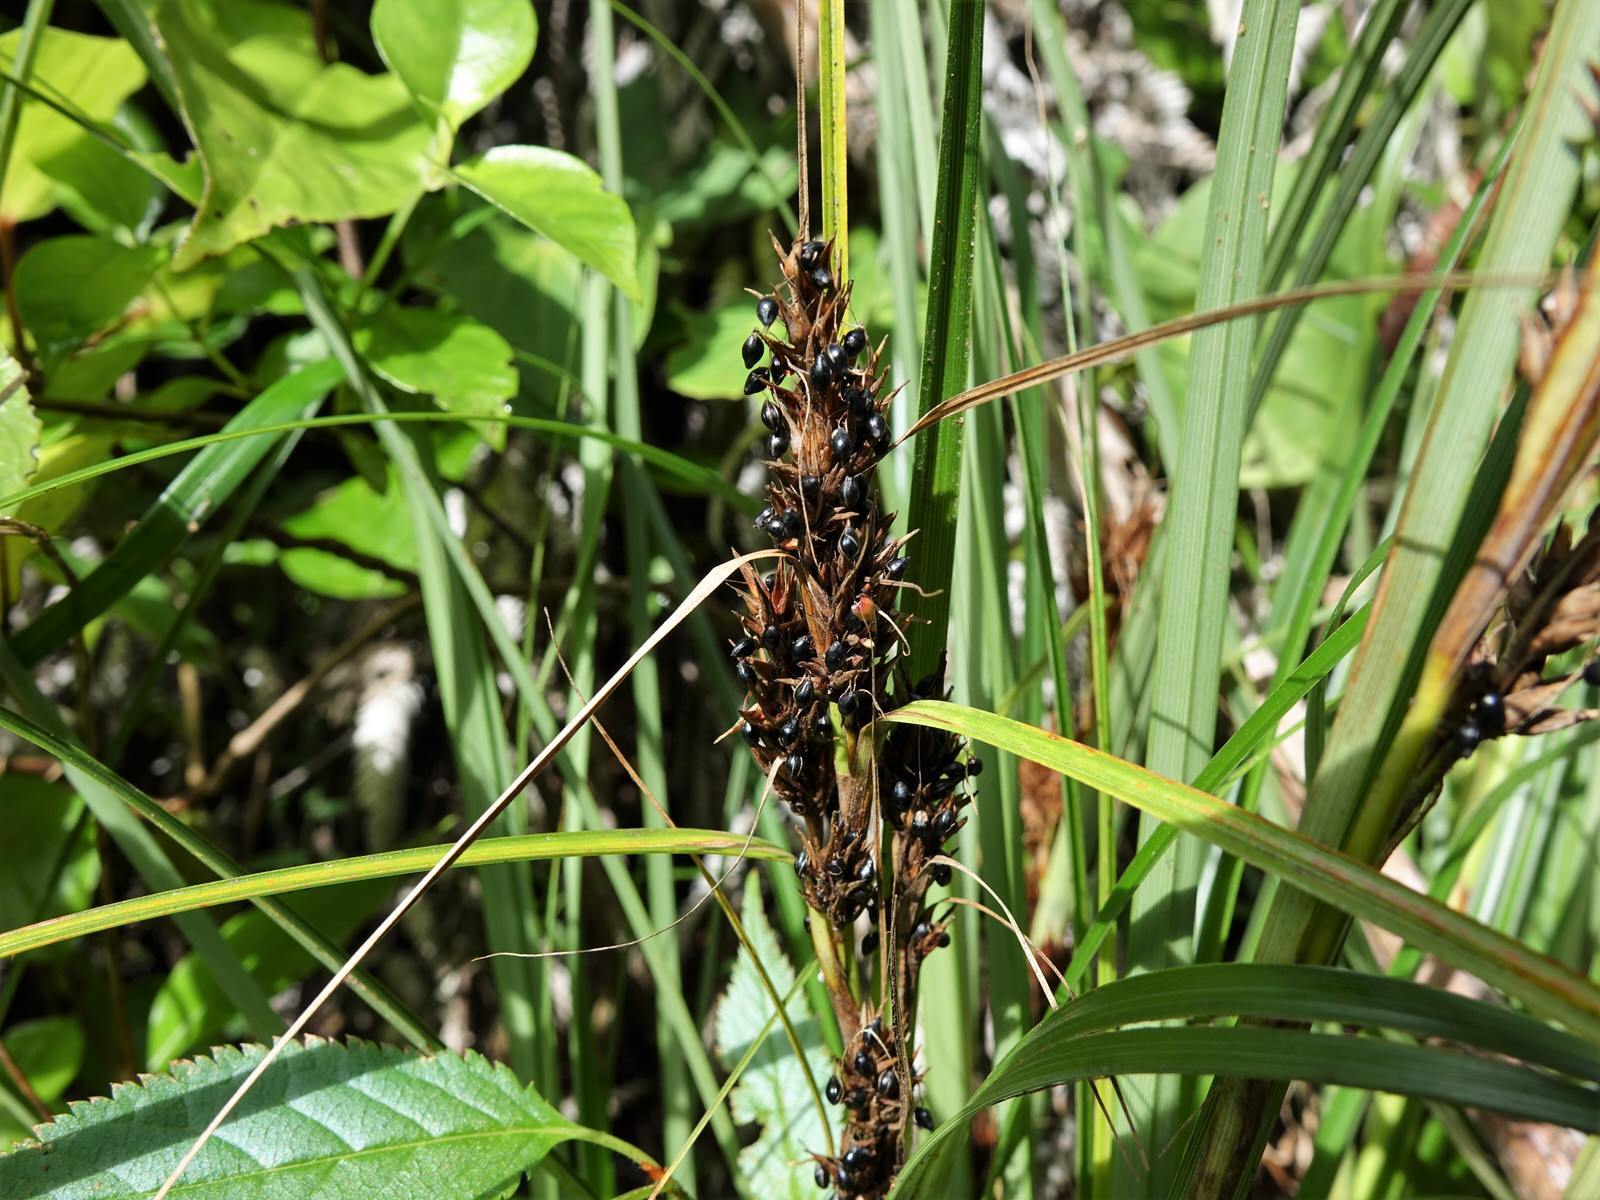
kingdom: Plantae
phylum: Tracheophyta
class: Liliopsida
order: Poales
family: Cyperaceae
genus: Morelotia
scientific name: Morelotia affinis
